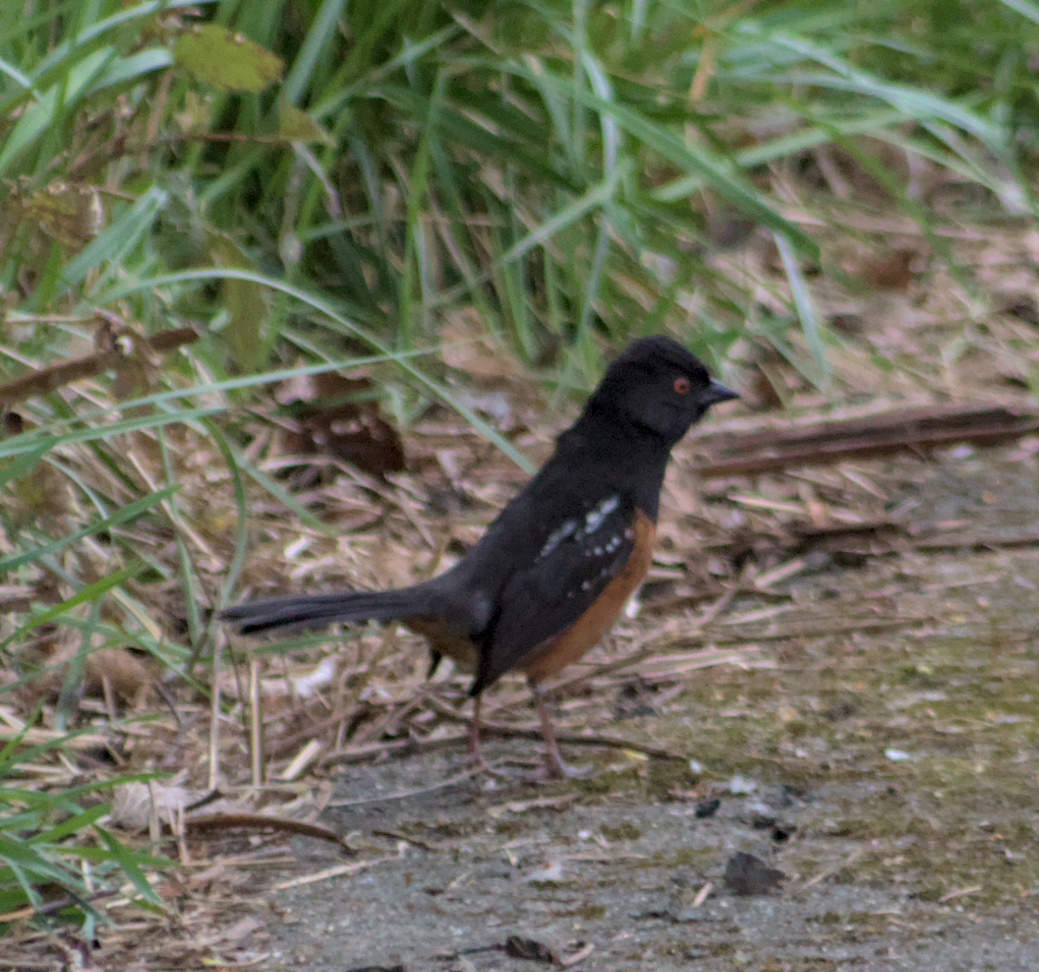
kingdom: Animalia
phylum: Chordata
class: Aves
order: Passeriformes
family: Passerellidae
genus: Pipilo
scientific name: Pipilo maculatus
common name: Spotted towhee
